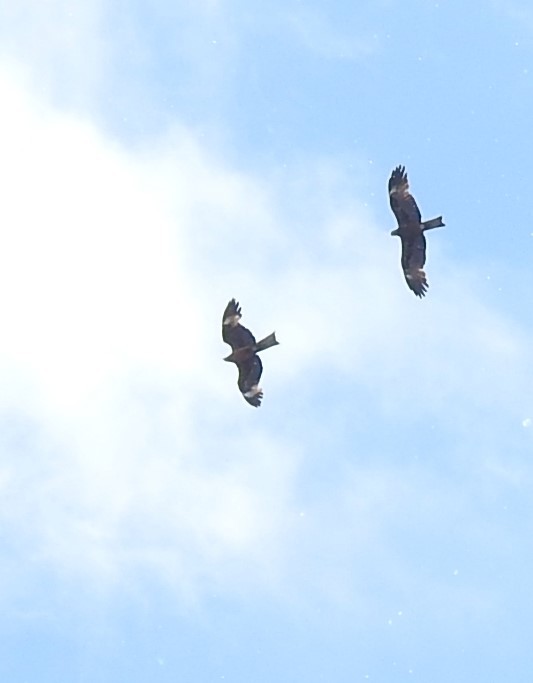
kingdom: Animalia
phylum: Chordata
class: Aves
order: Accipitriformes
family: Accipitridae
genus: Milvus
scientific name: Milvus migrans
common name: Black kite
